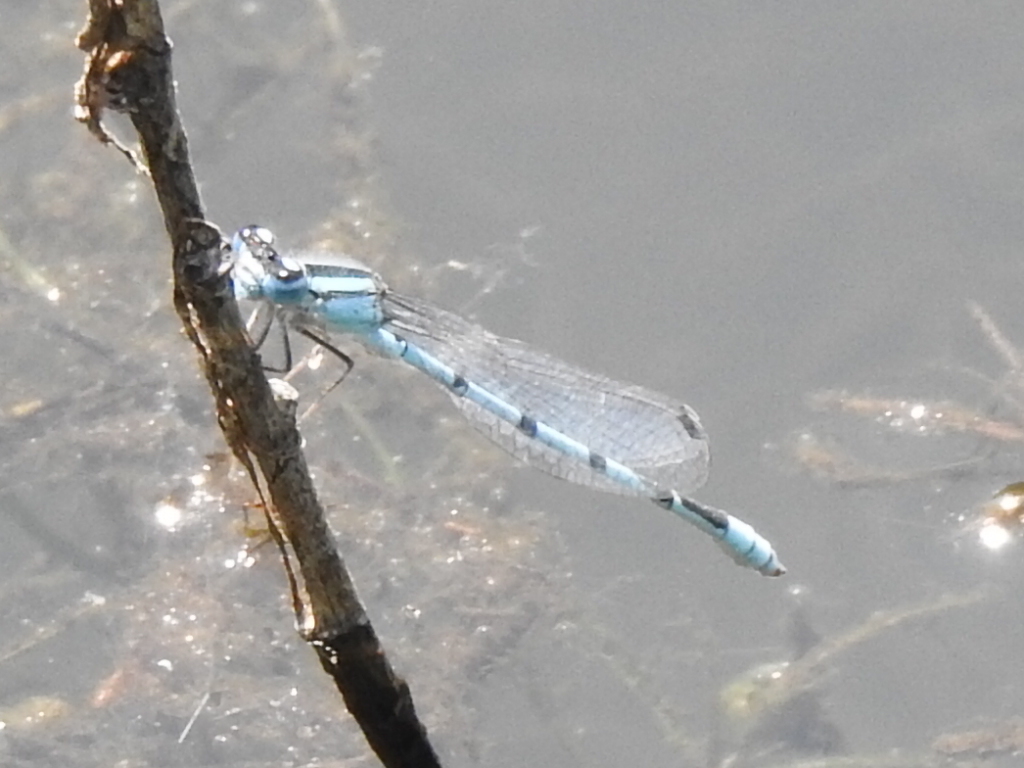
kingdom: Animalia
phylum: Arthropoda
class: Insecta
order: Odonata
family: Coenagrionidae
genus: Enallagma
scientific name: Enallagma civile
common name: Damselfly
